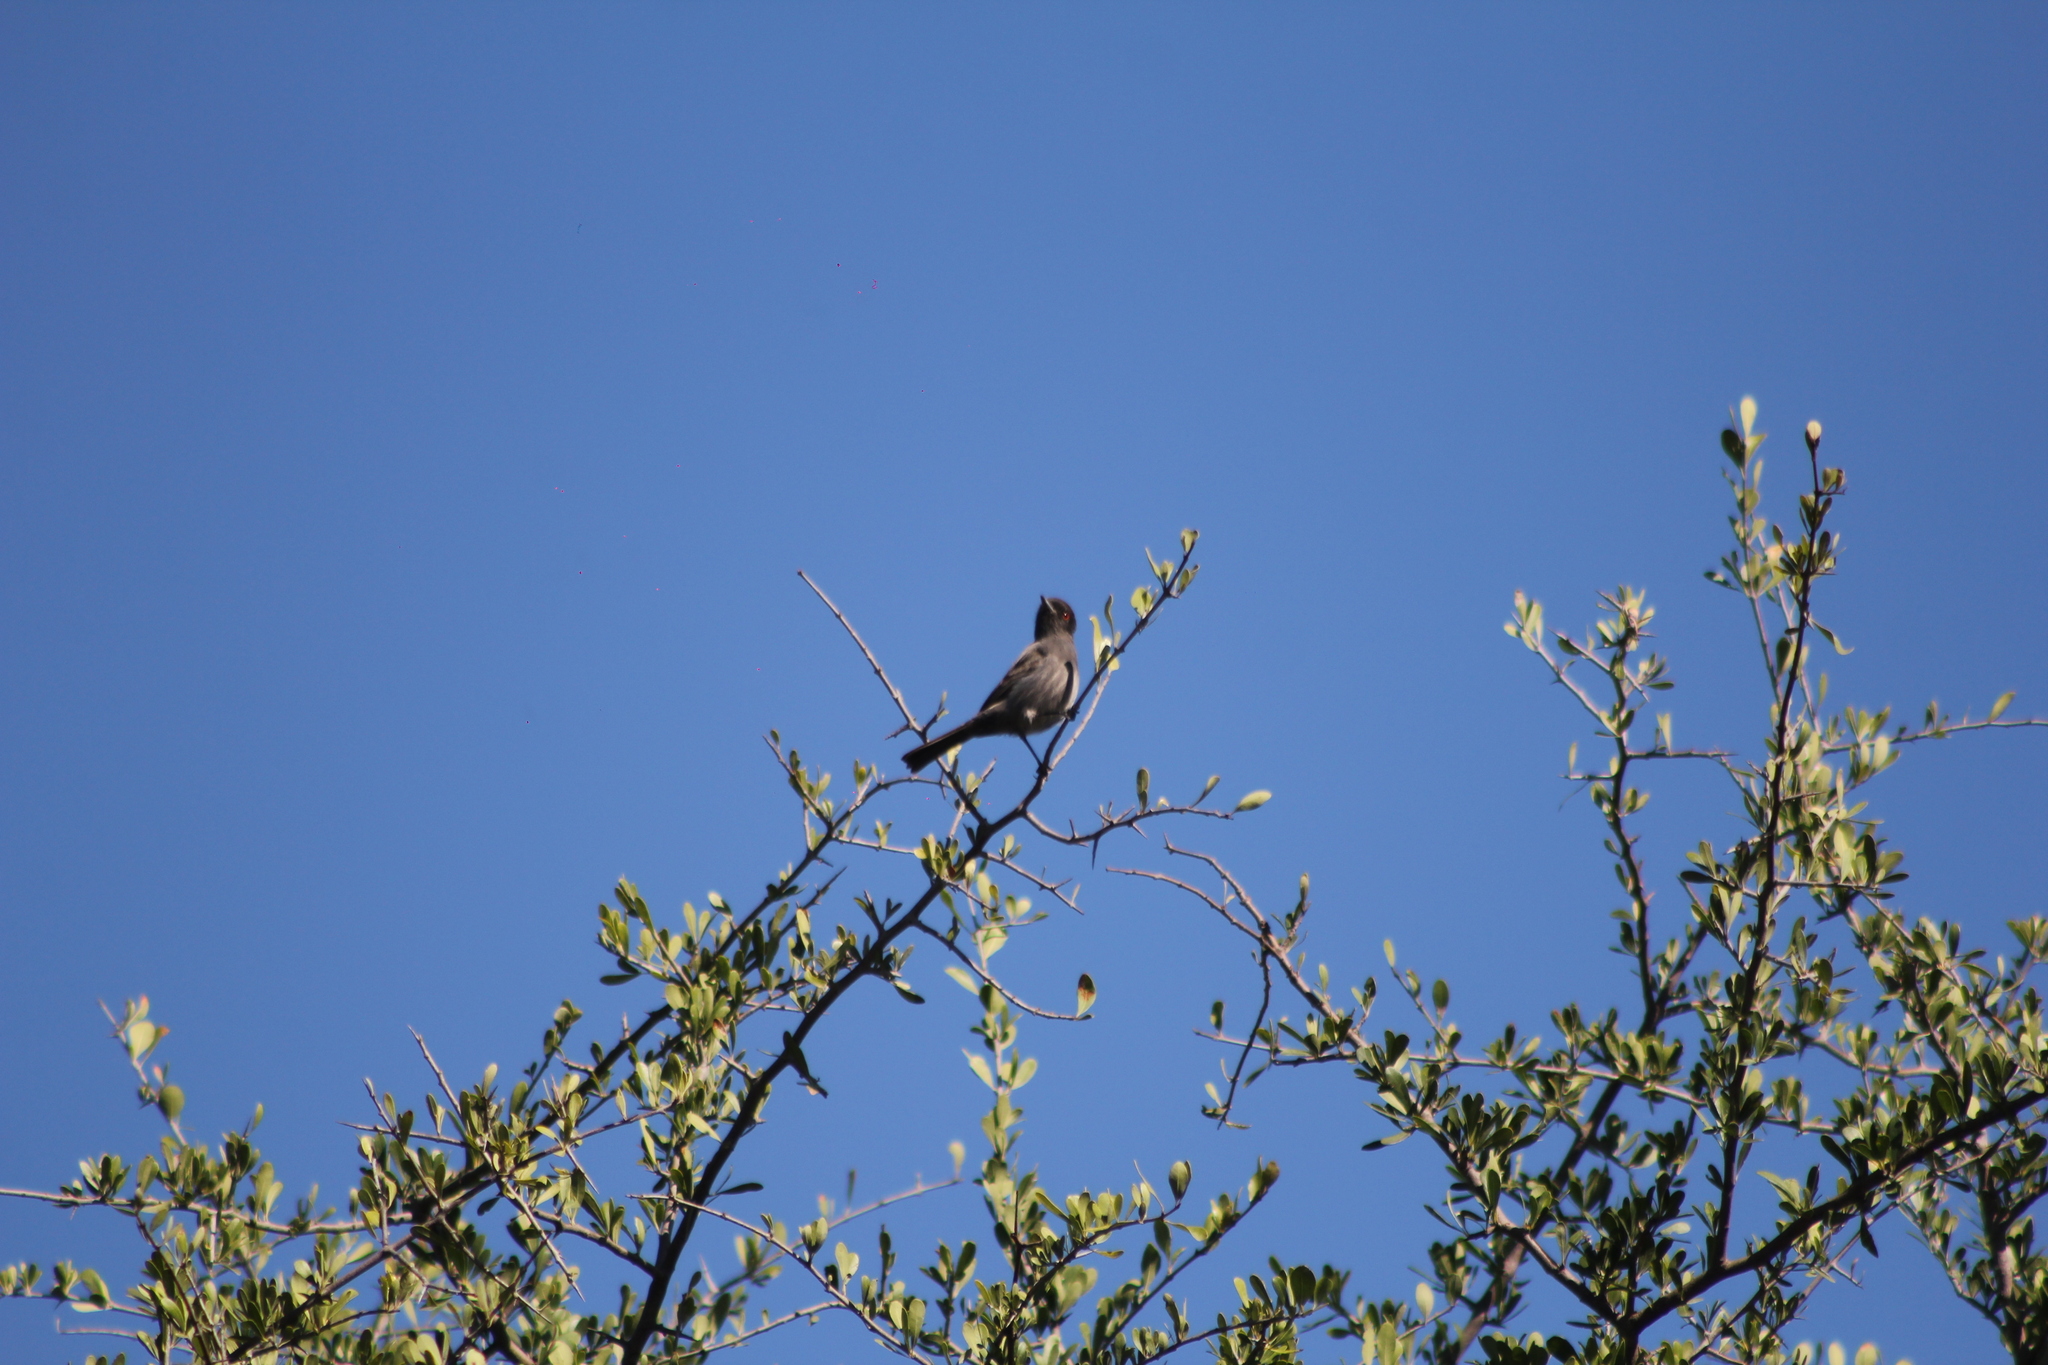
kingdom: Animalia
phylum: Chordata
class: Aves
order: Passeriformes
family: Tyrannidae
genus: Knipolegus
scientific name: Knipolegus striaticeps
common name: Cinereous tyrant
